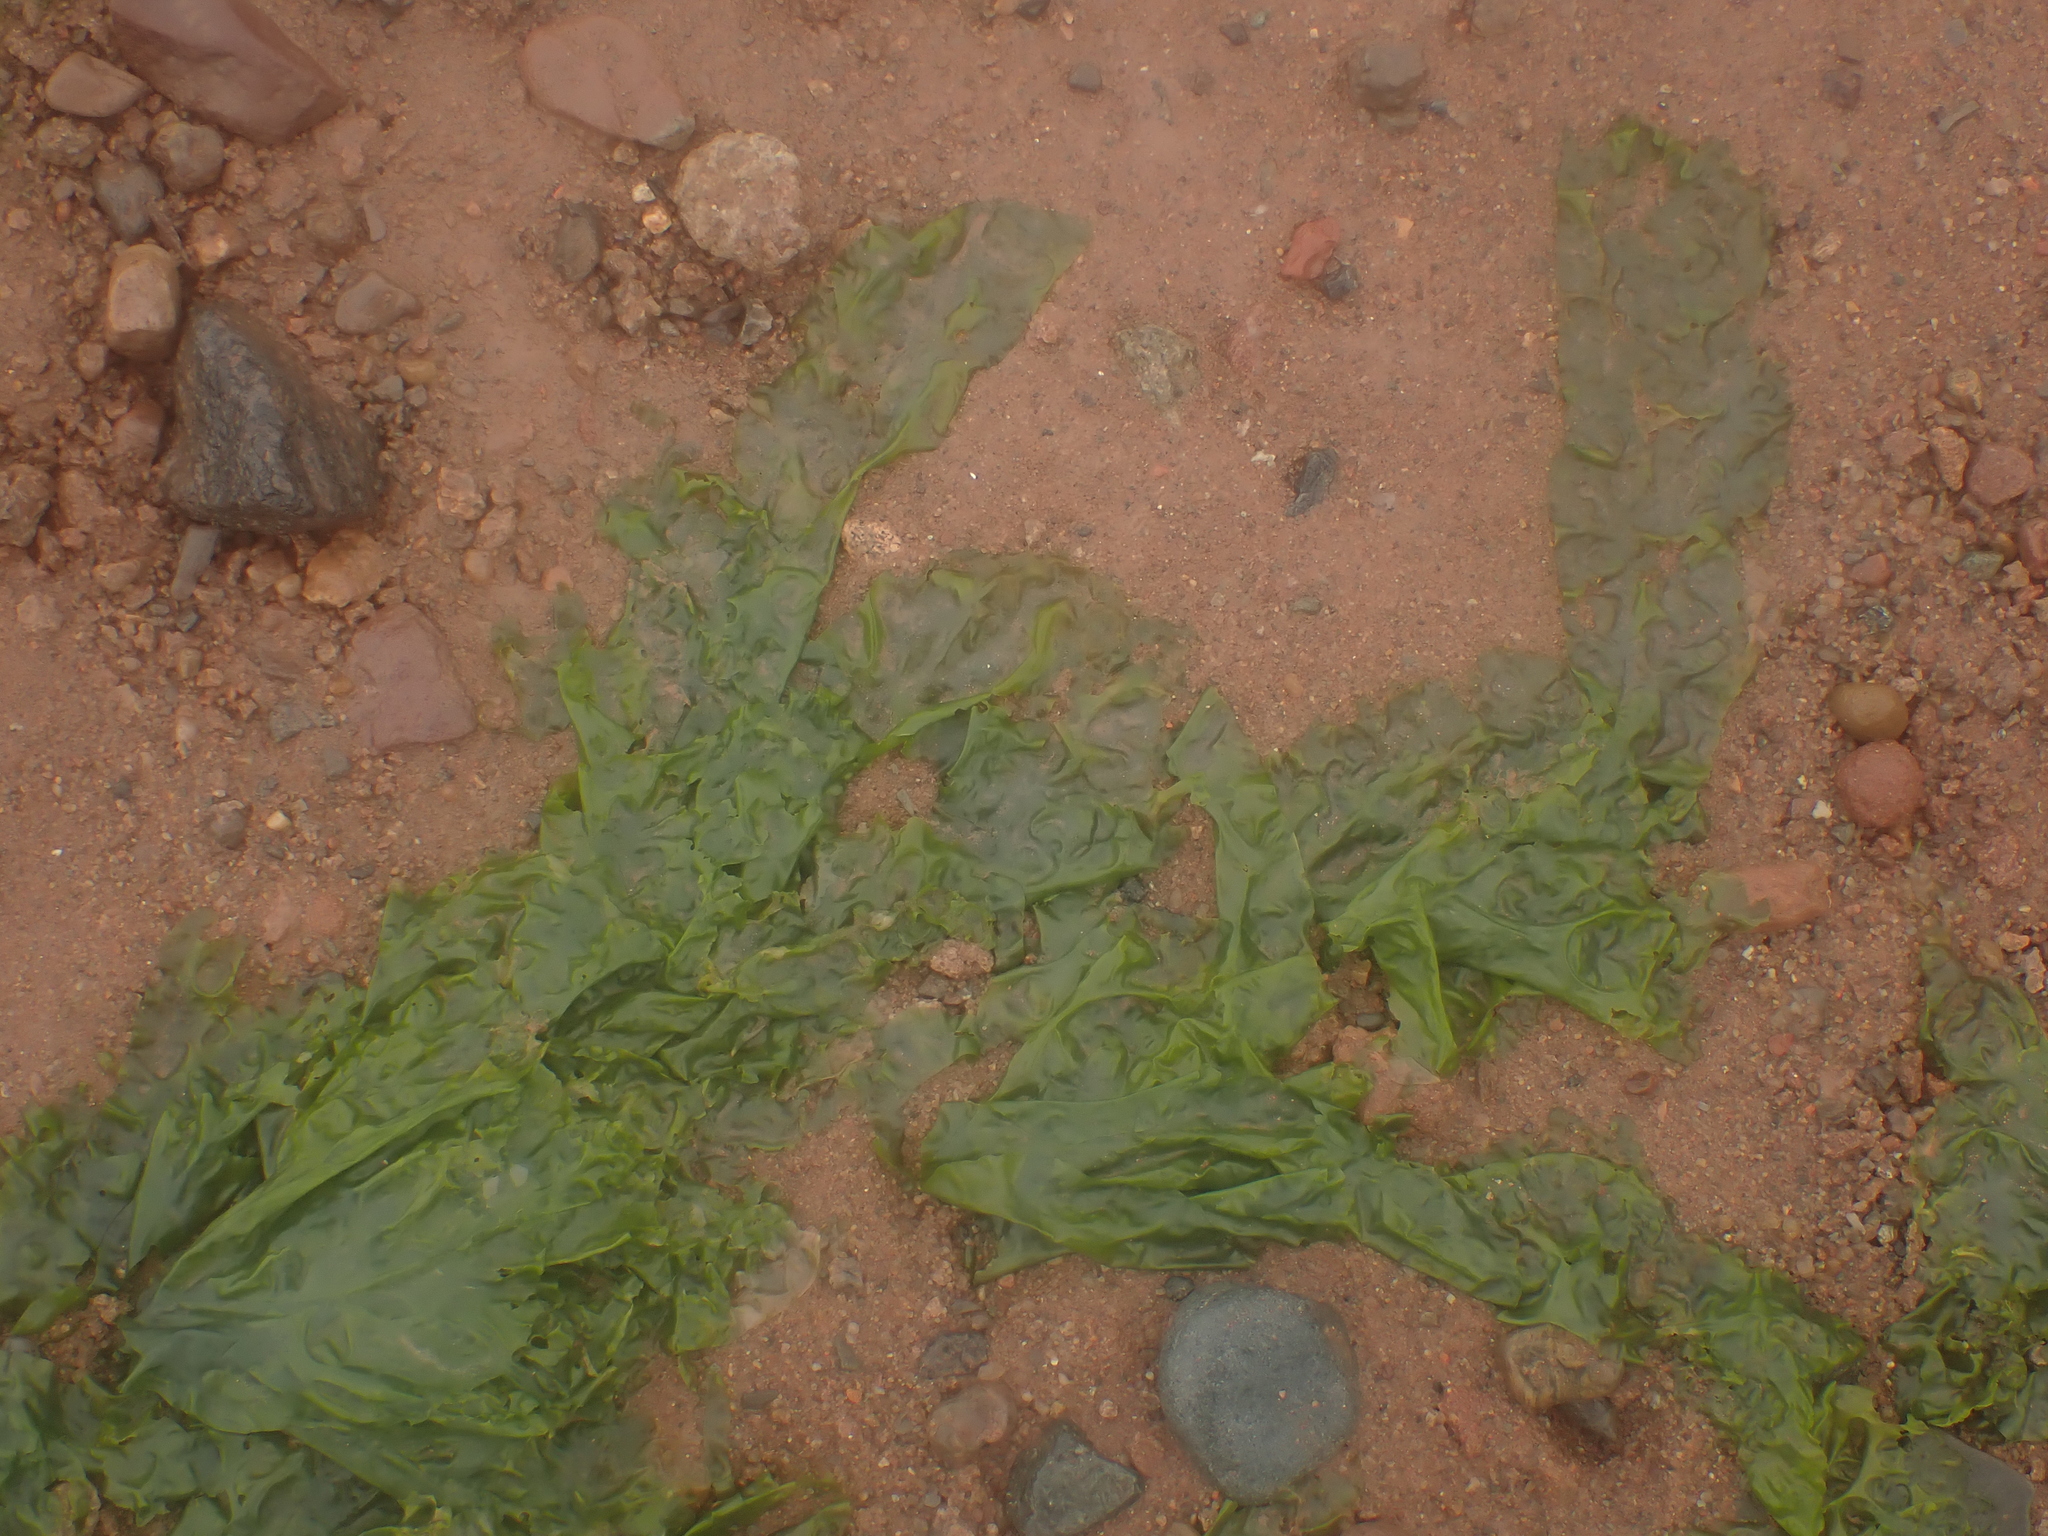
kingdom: Plantae
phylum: Chlorophyta
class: Ulvophyceae
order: Ulvales
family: Ulvaceae
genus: Ulva
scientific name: Ulva lactuca
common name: Sea lettuce
